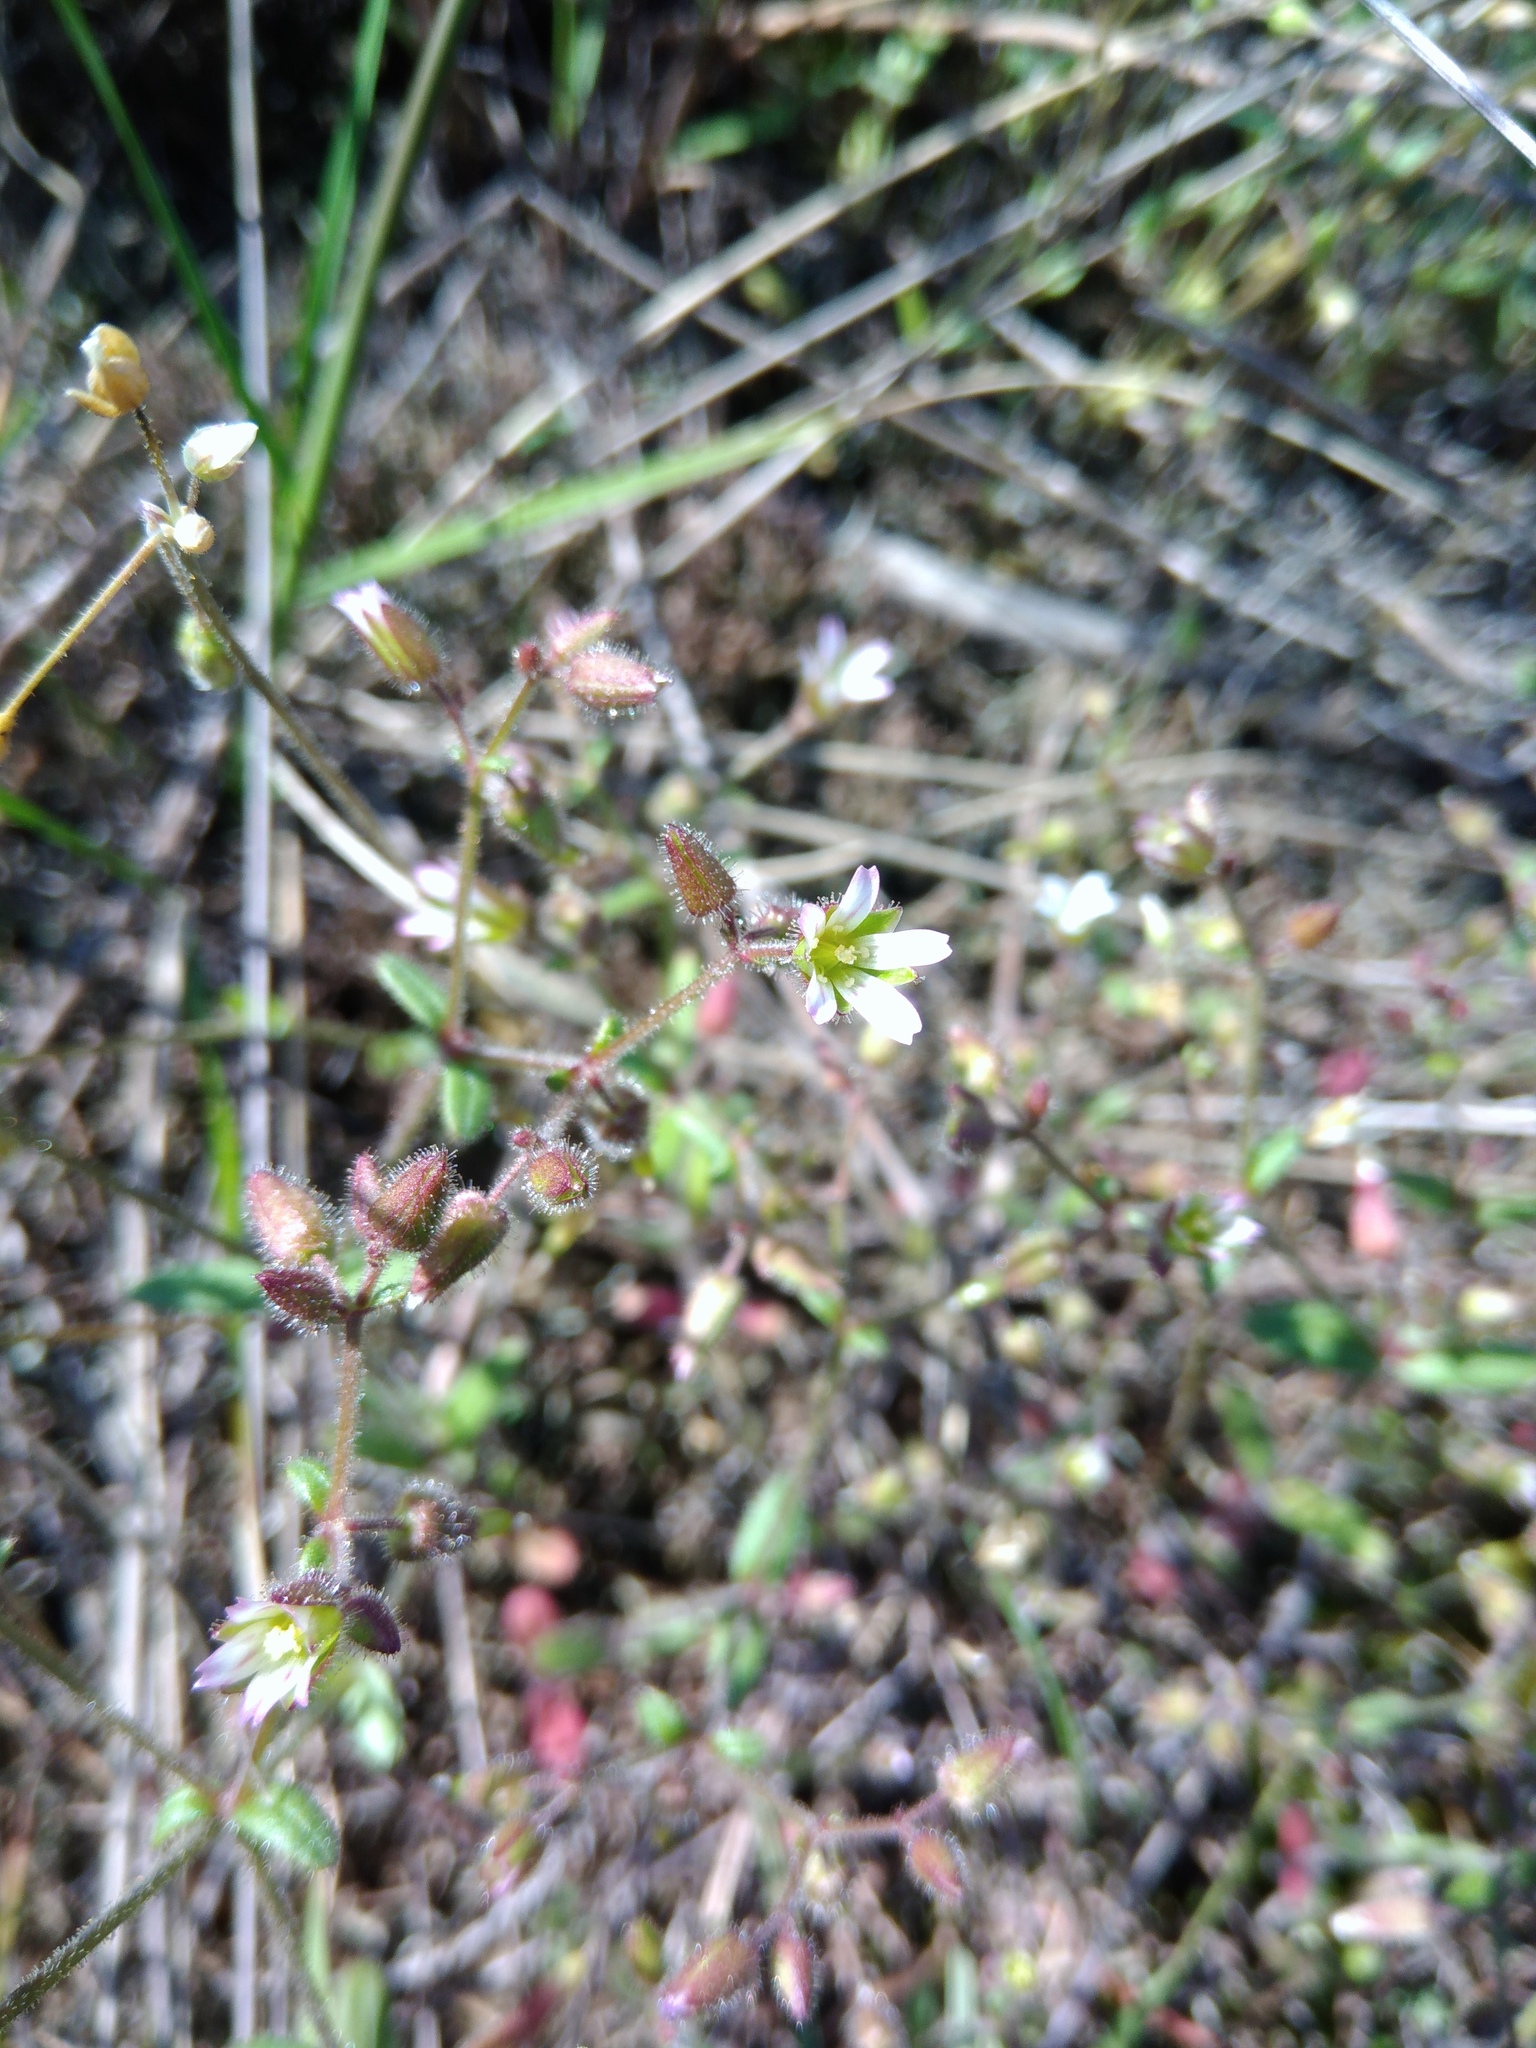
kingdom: Plantae
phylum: Tracheophyta
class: Magnoliopsida
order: Caryophyllales
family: Caryophyllaceae
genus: Cerastium
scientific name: Cerastium ramosissimum
